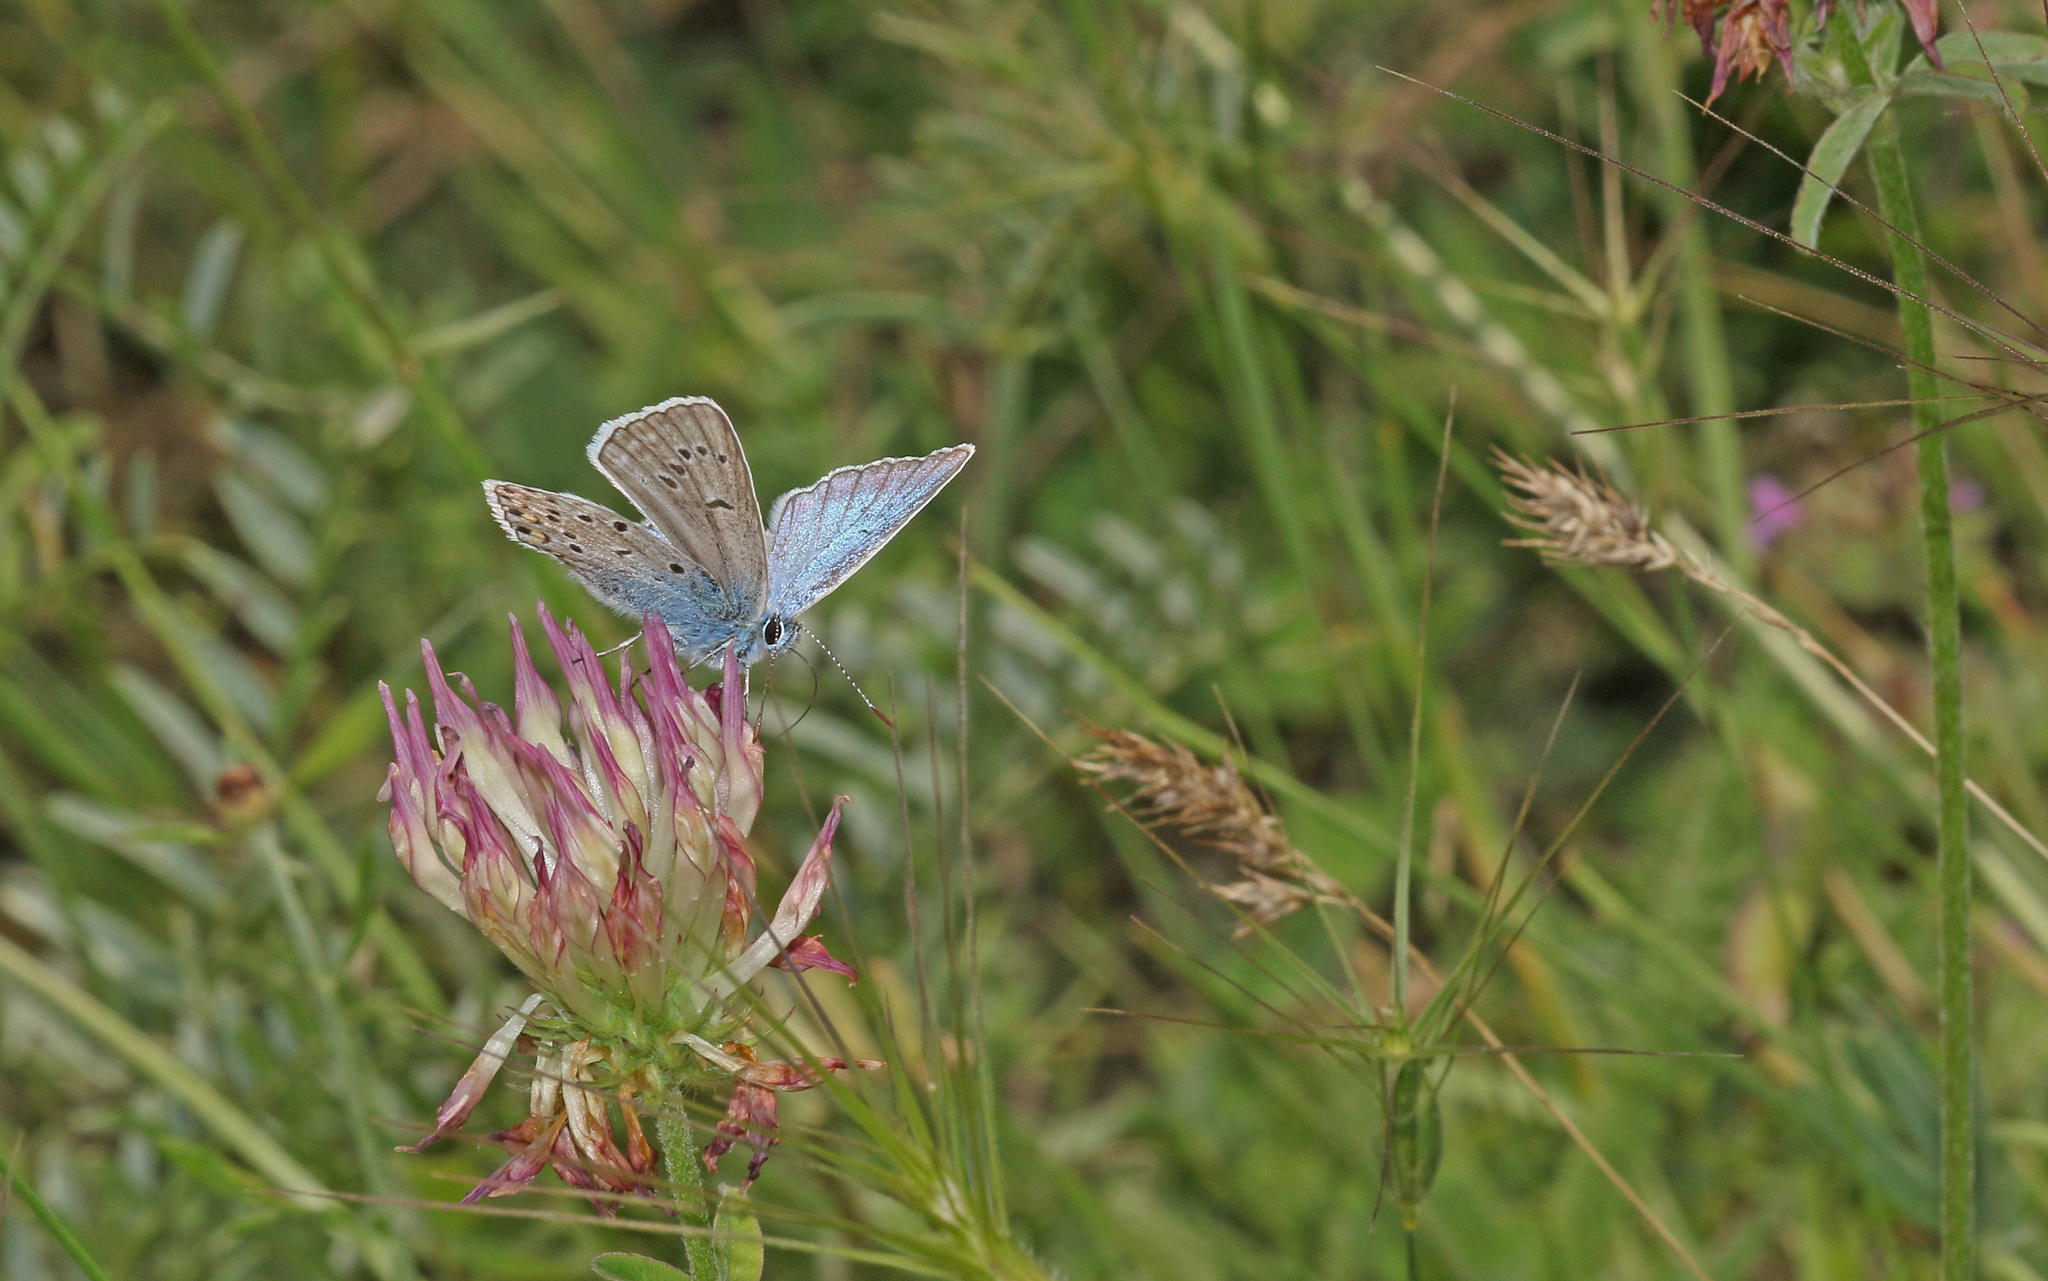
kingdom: Animalia
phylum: Arthropoda
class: Insecta
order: Lepidoptera
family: Lycaenidae
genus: Plebejus
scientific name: Plebejus amanda
